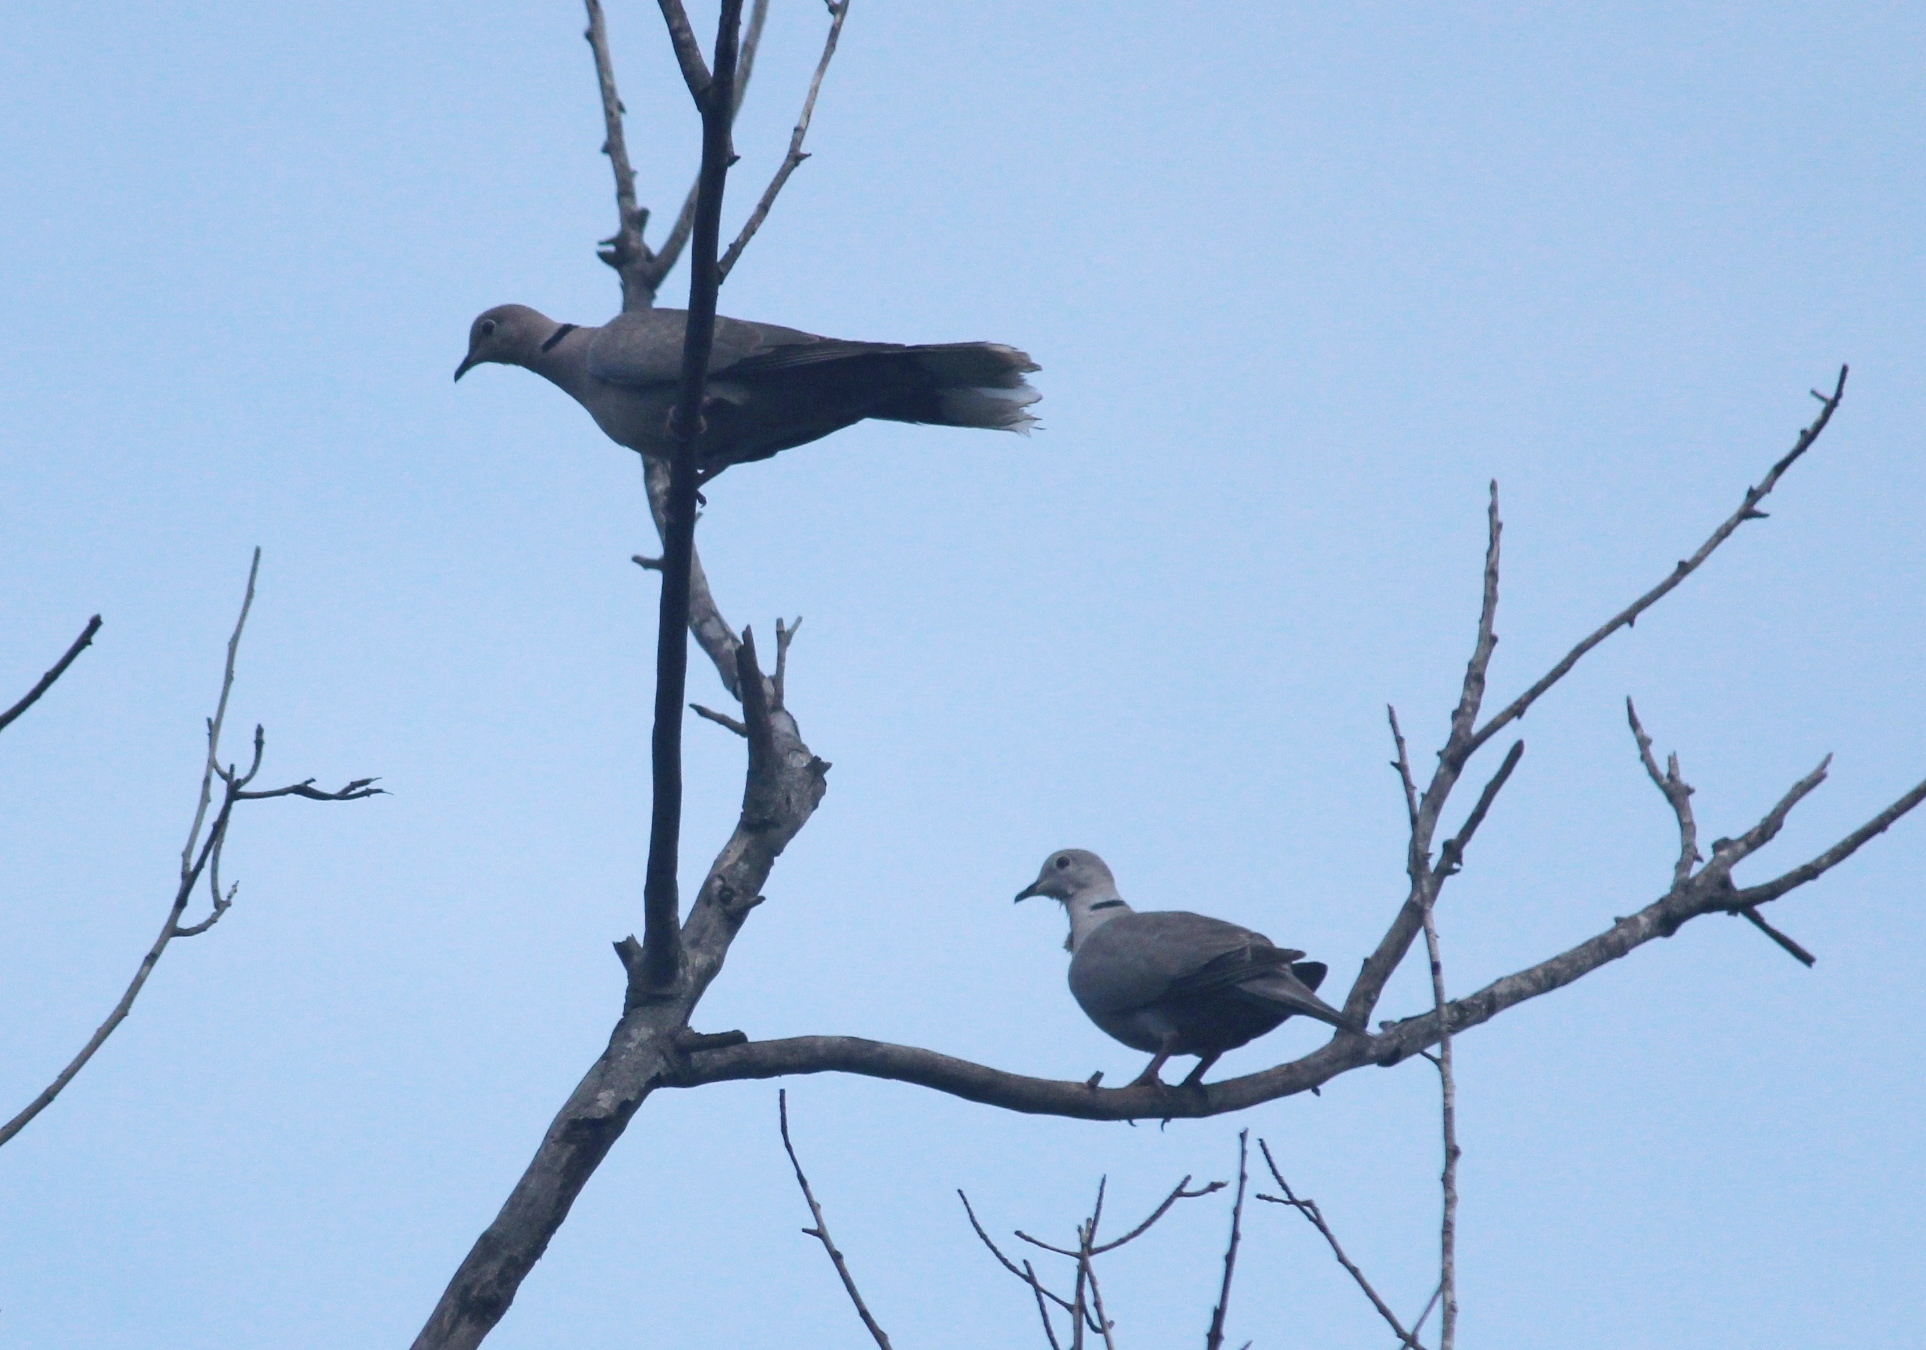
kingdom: Animalia
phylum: Chordata
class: Aves
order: Columbiformes
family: Columbidae
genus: Streptopelia
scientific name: Streptopelia decaocto
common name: Eurasian collared dove
